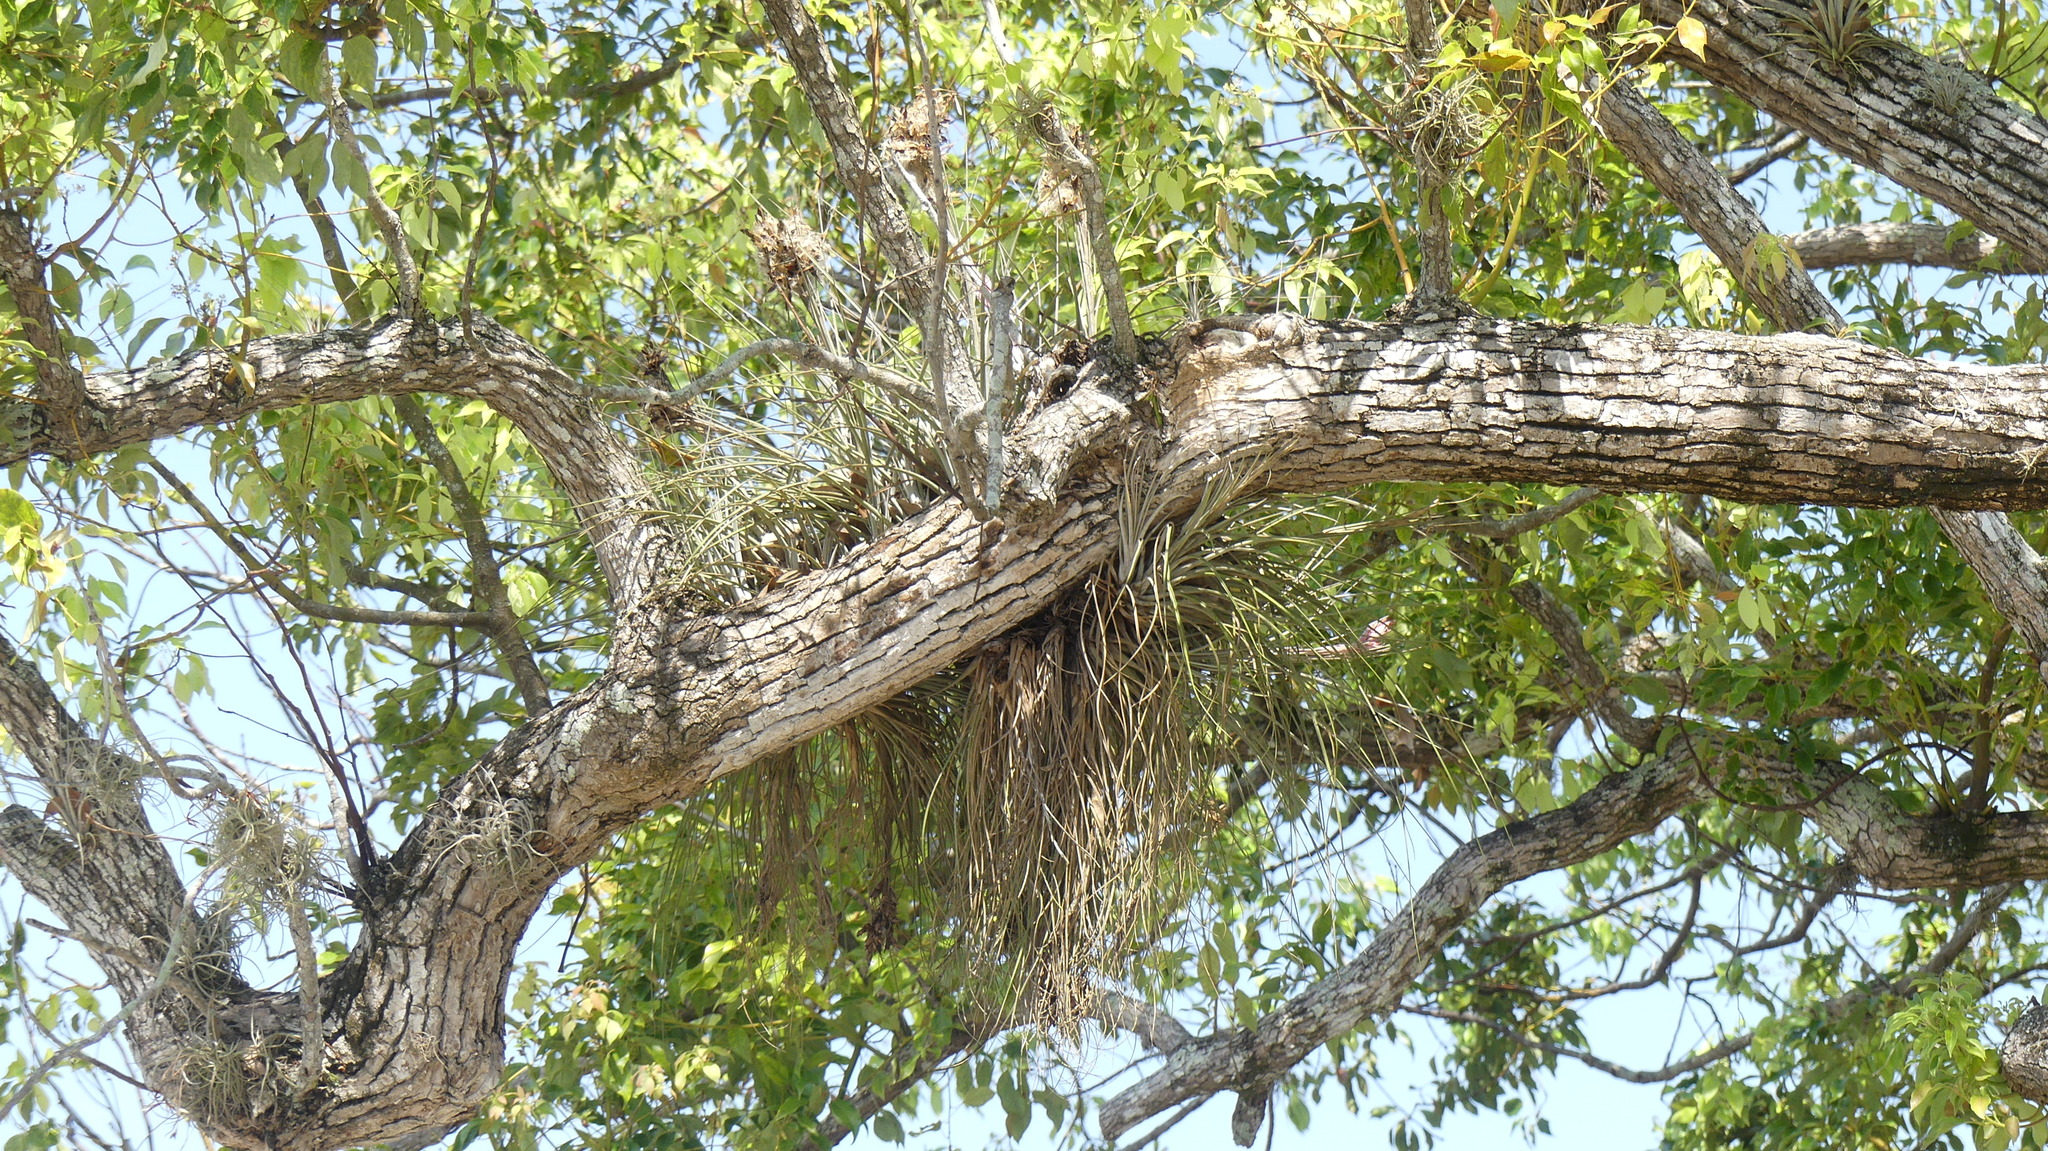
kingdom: Plantae
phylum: Tracheophyta
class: Liliopsida
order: Poales
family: Bromeliaceae
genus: Tillandsia
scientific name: Tillandsia fasciculata
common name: Giant airplant
